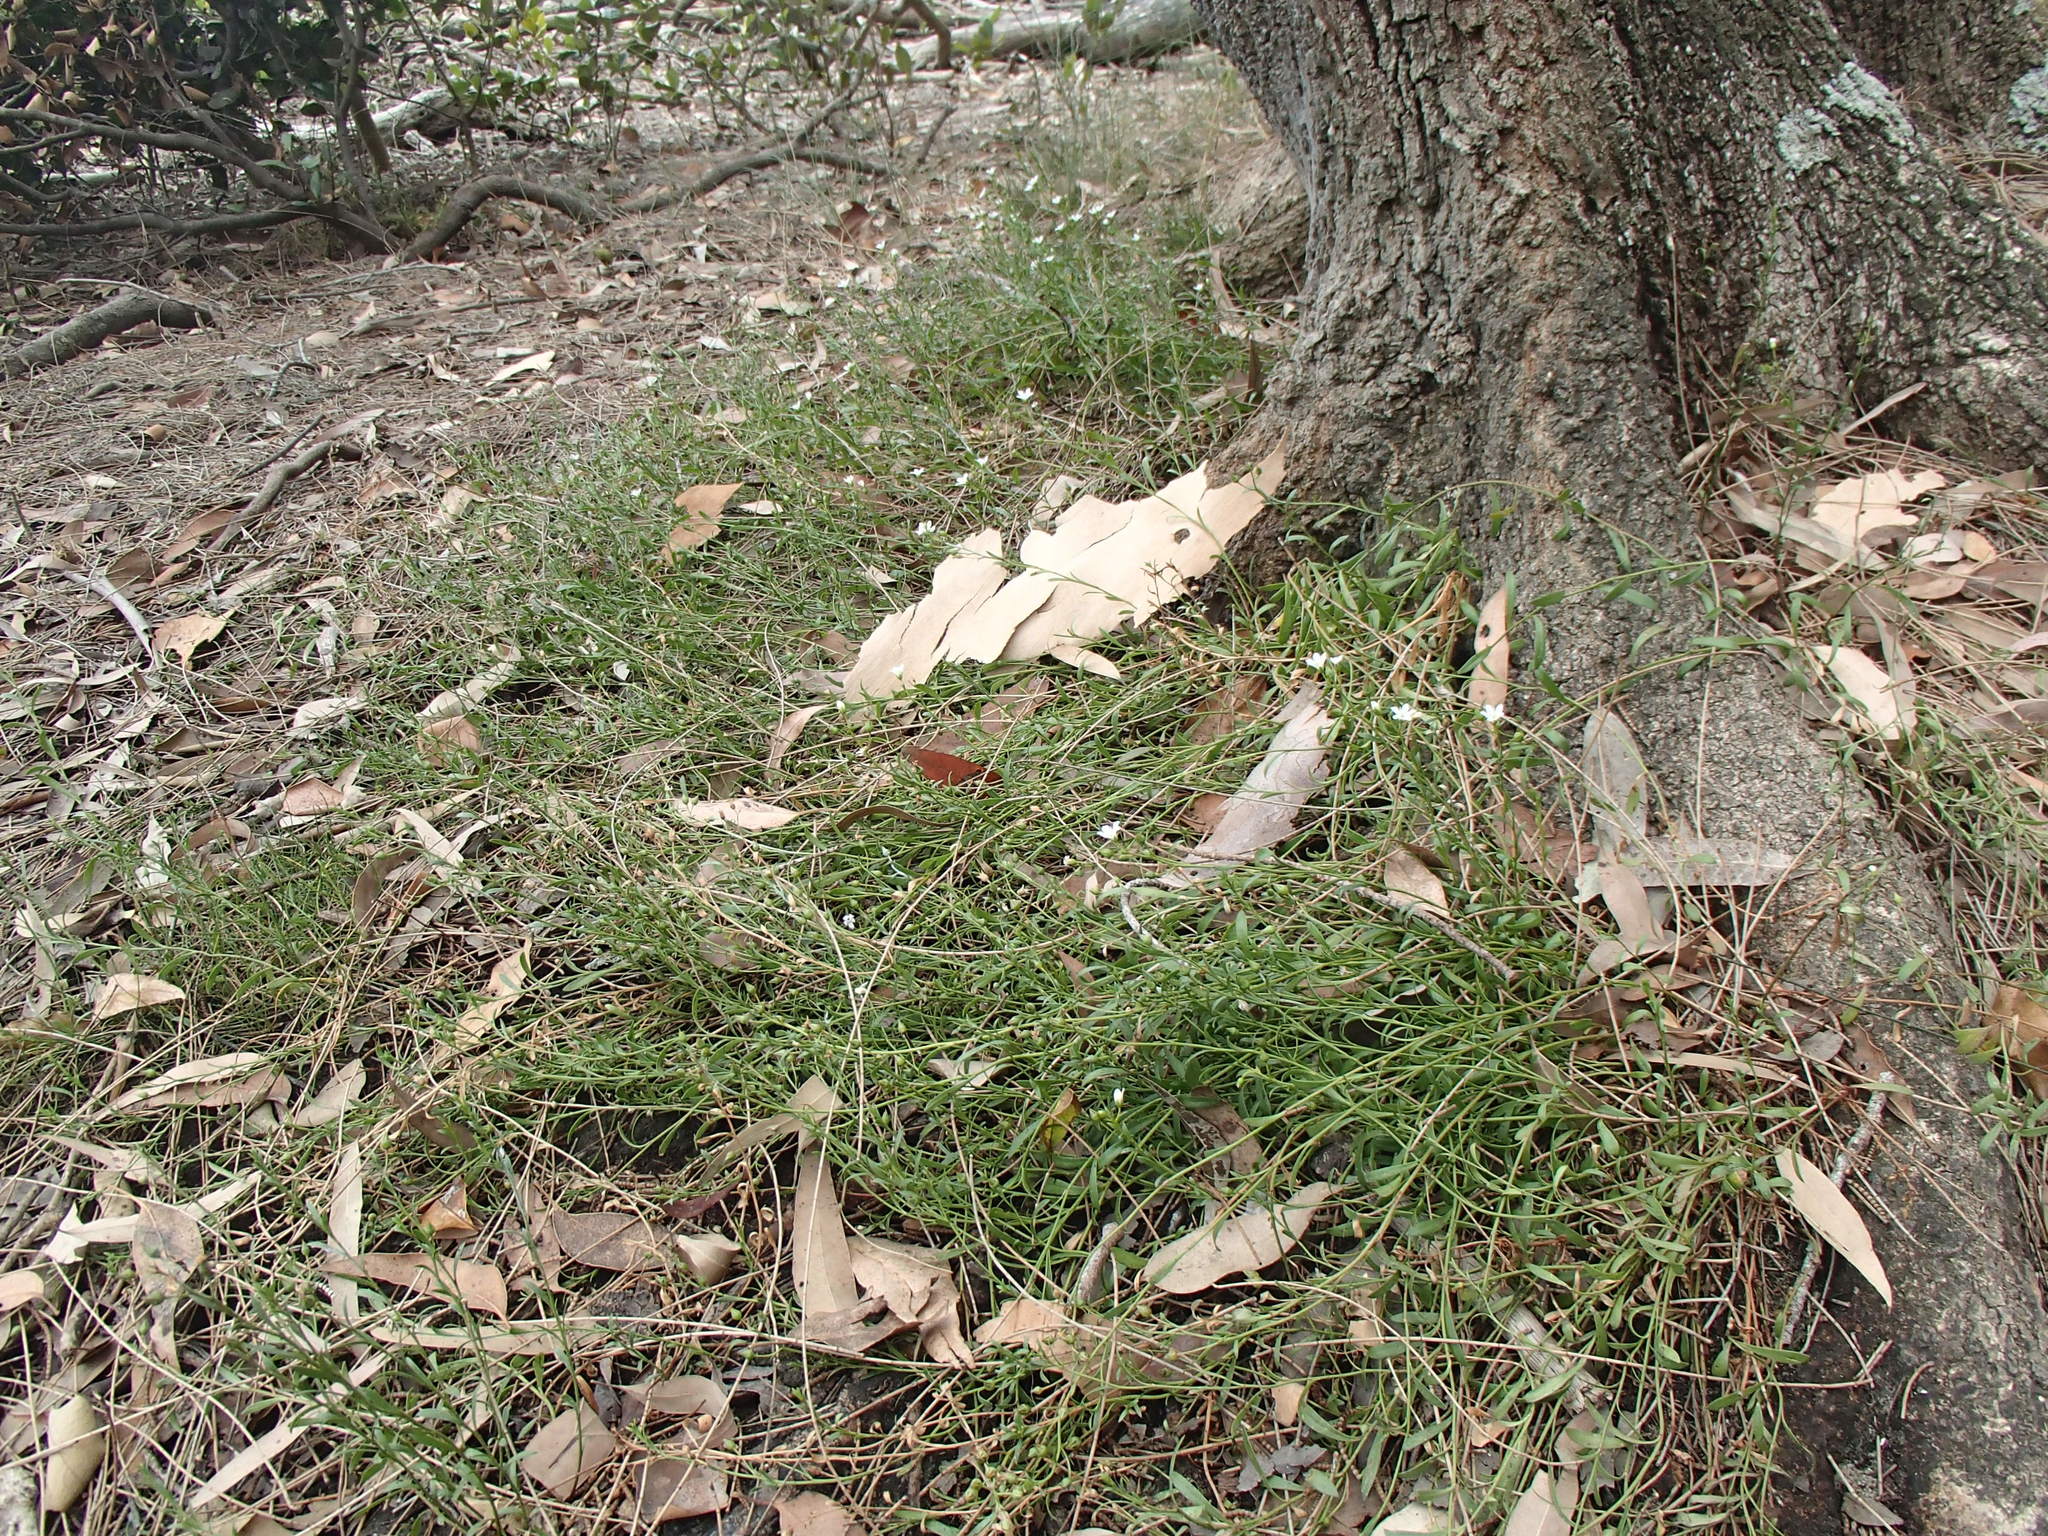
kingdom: Plantae
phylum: Tracheophyta
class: Magnoliopsida
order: Ericales
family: Primulaceae
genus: Samolus
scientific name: Samolus repens
